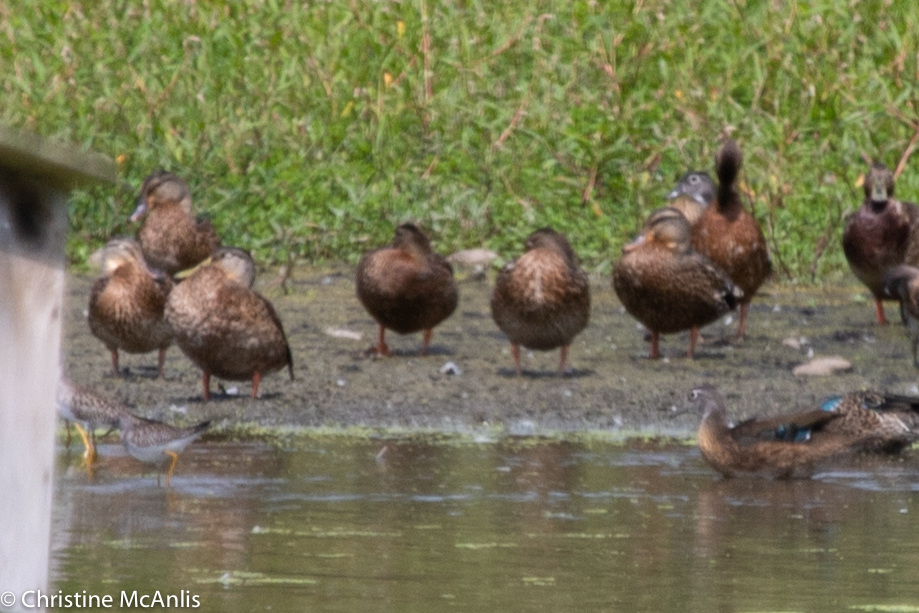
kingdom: Animalia
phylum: Chordata
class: Aves
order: Anseriformes
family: Anatidae
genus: Anas
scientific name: Anas platyrhynchos
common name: Mallard
